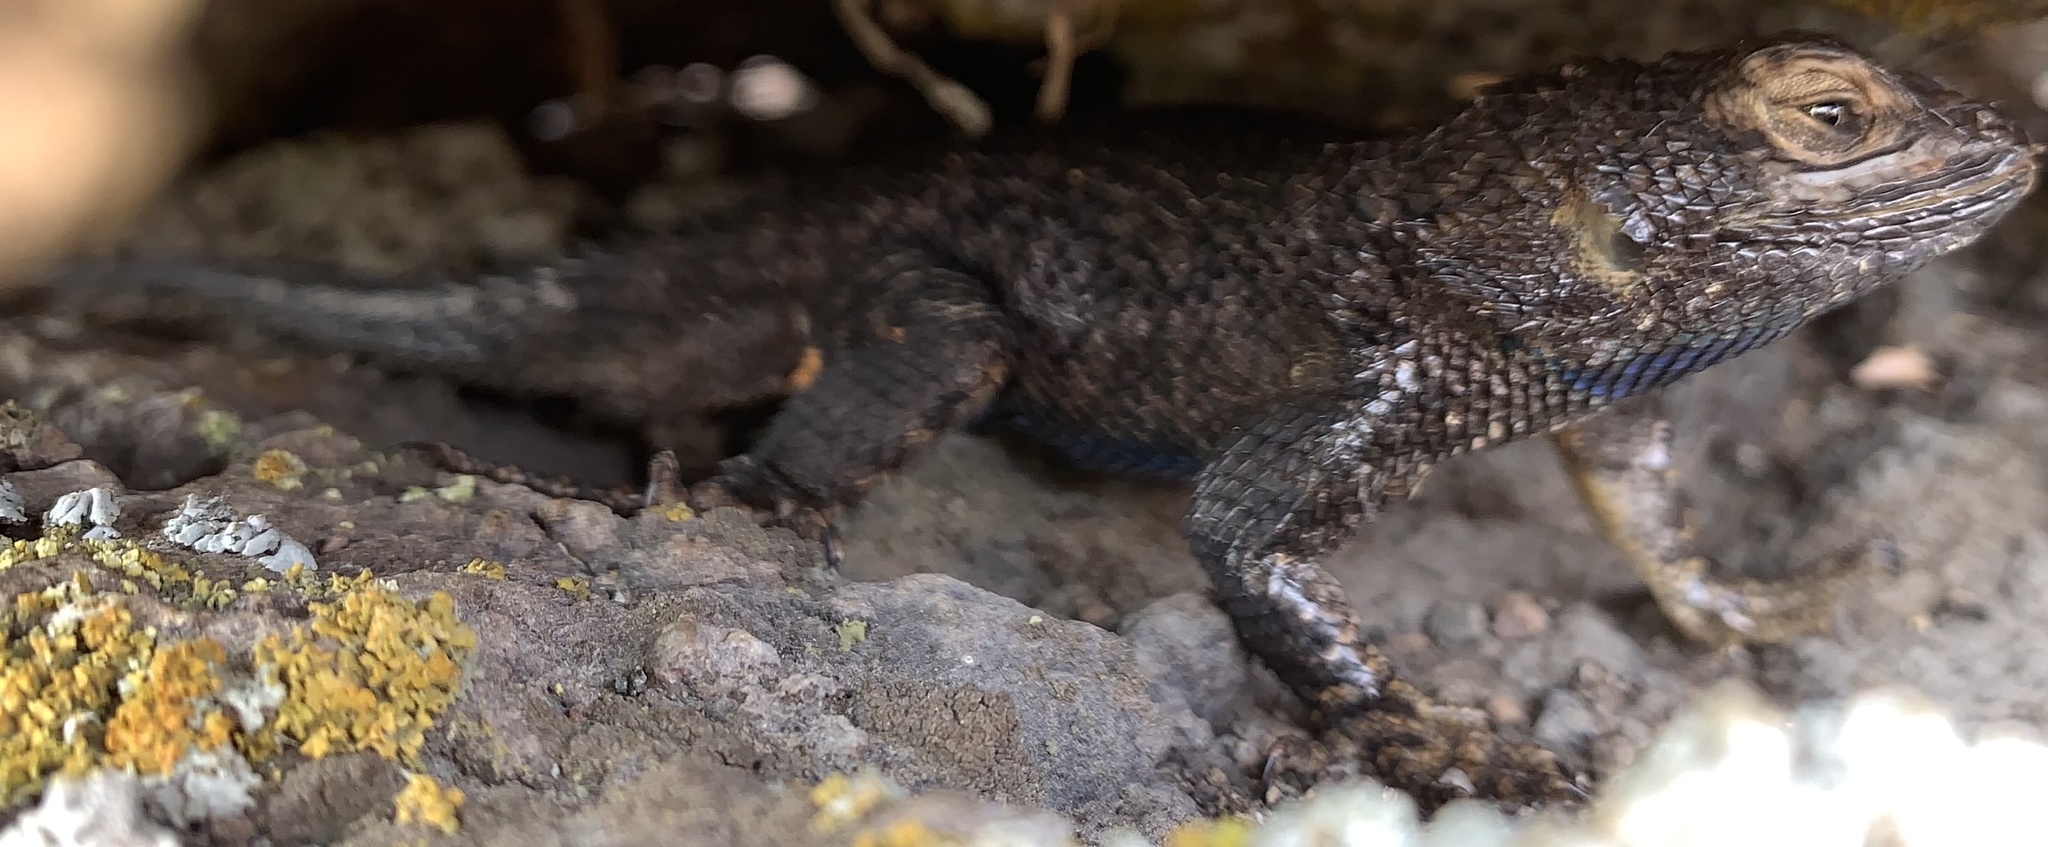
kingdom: Animalia
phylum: Chordata
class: Squamata
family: Phrynosomatidae
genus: Sceloporus
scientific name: Sceloporus occidentalis
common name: Western fence lizard
